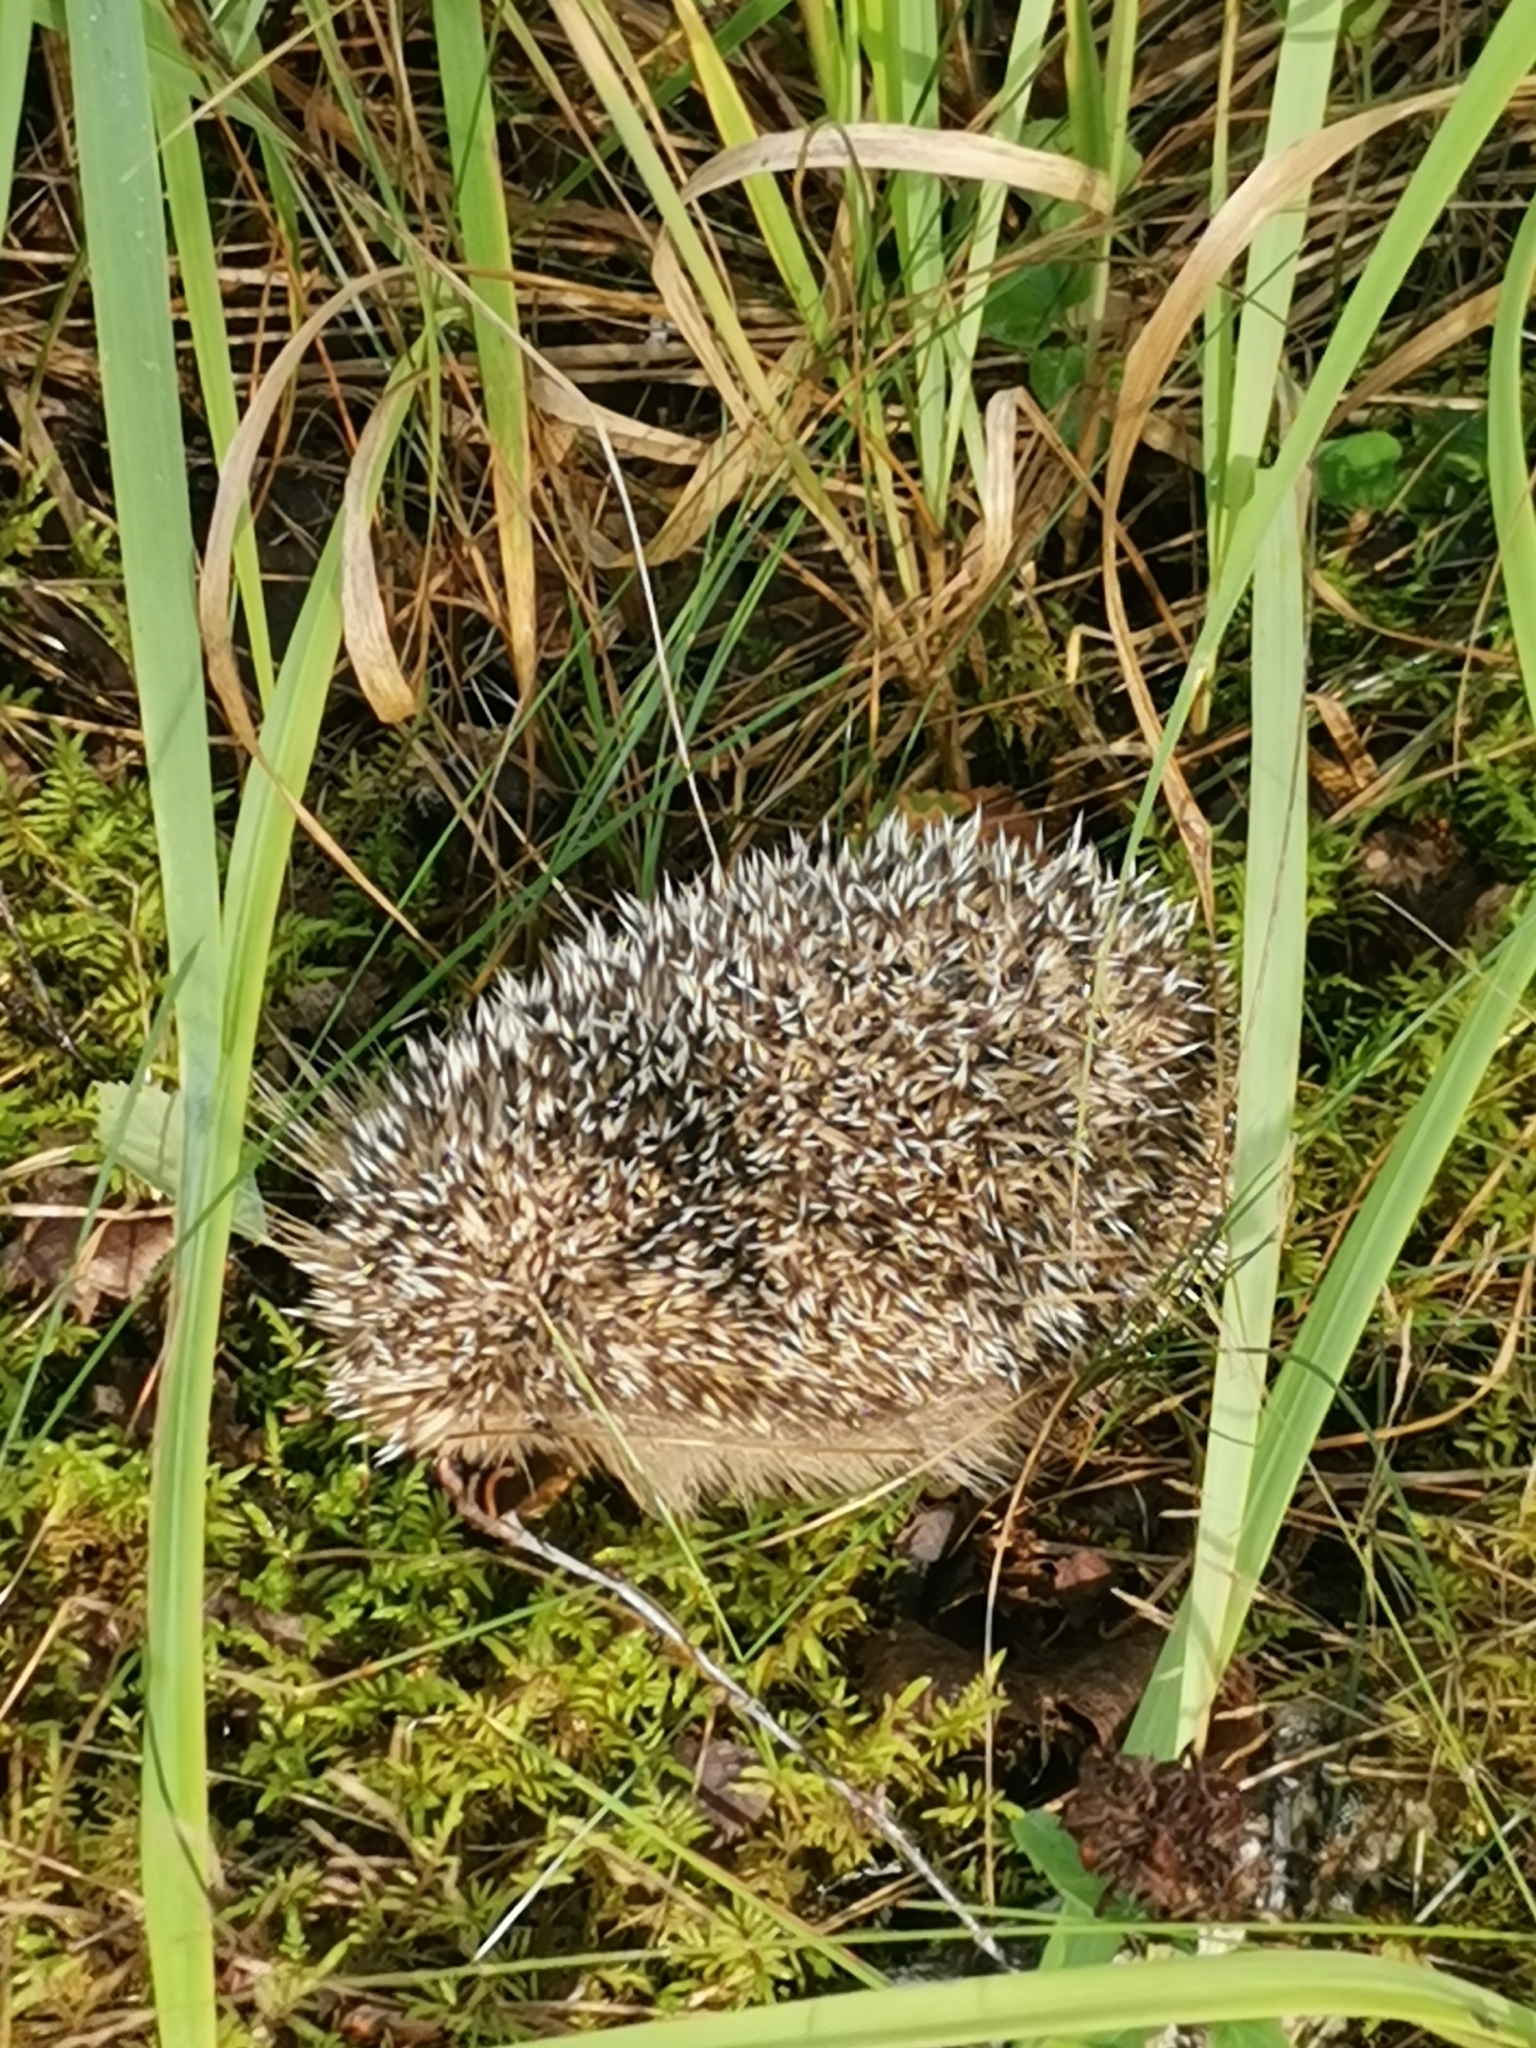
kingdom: Animalia
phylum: Chordata
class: Mammalia
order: Erinaceomorpha
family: Erinaceidae
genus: Erinaceus
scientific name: Erinaceus europaeus
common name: West european hedgehog
